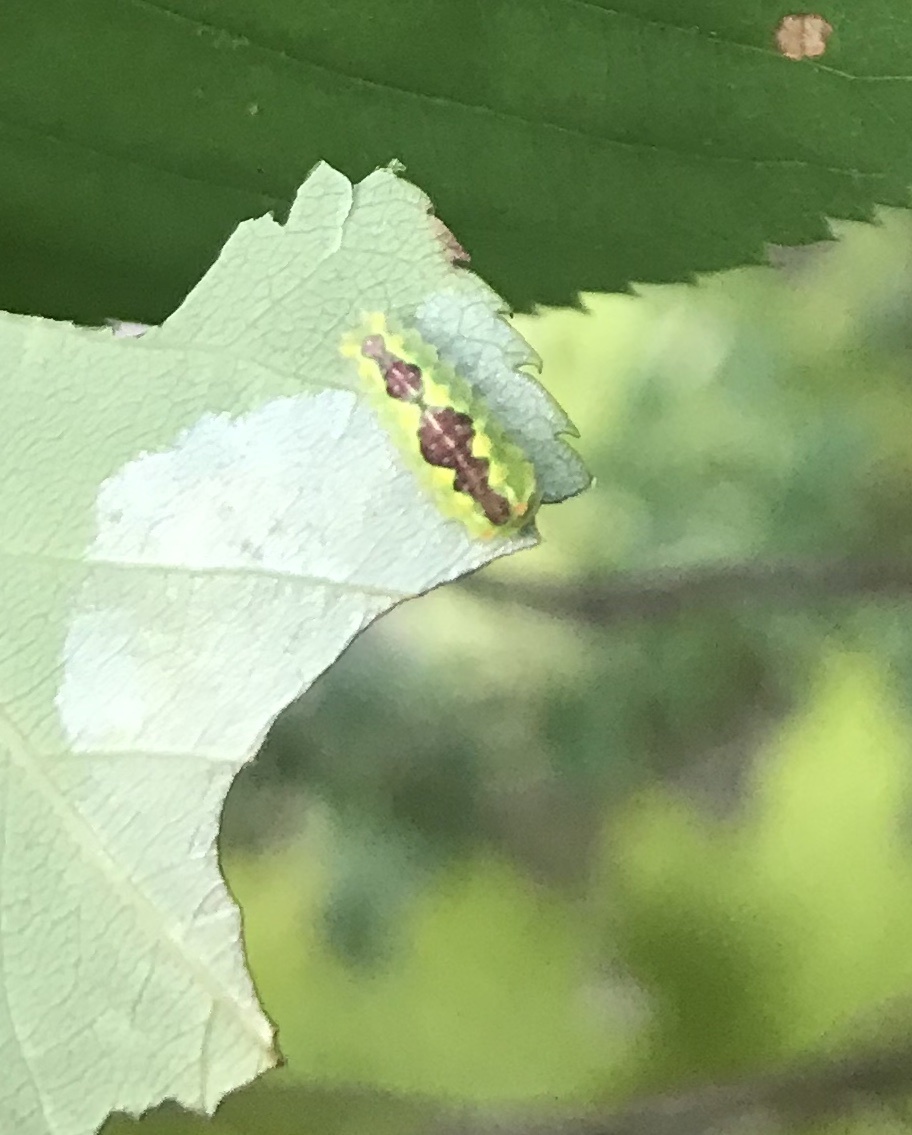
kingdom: Animalia
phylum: Arthropoda
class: Insecta
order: Lepidoptera
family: Limacodidae
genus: Adoneta
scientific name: Adoneta spinuloides
